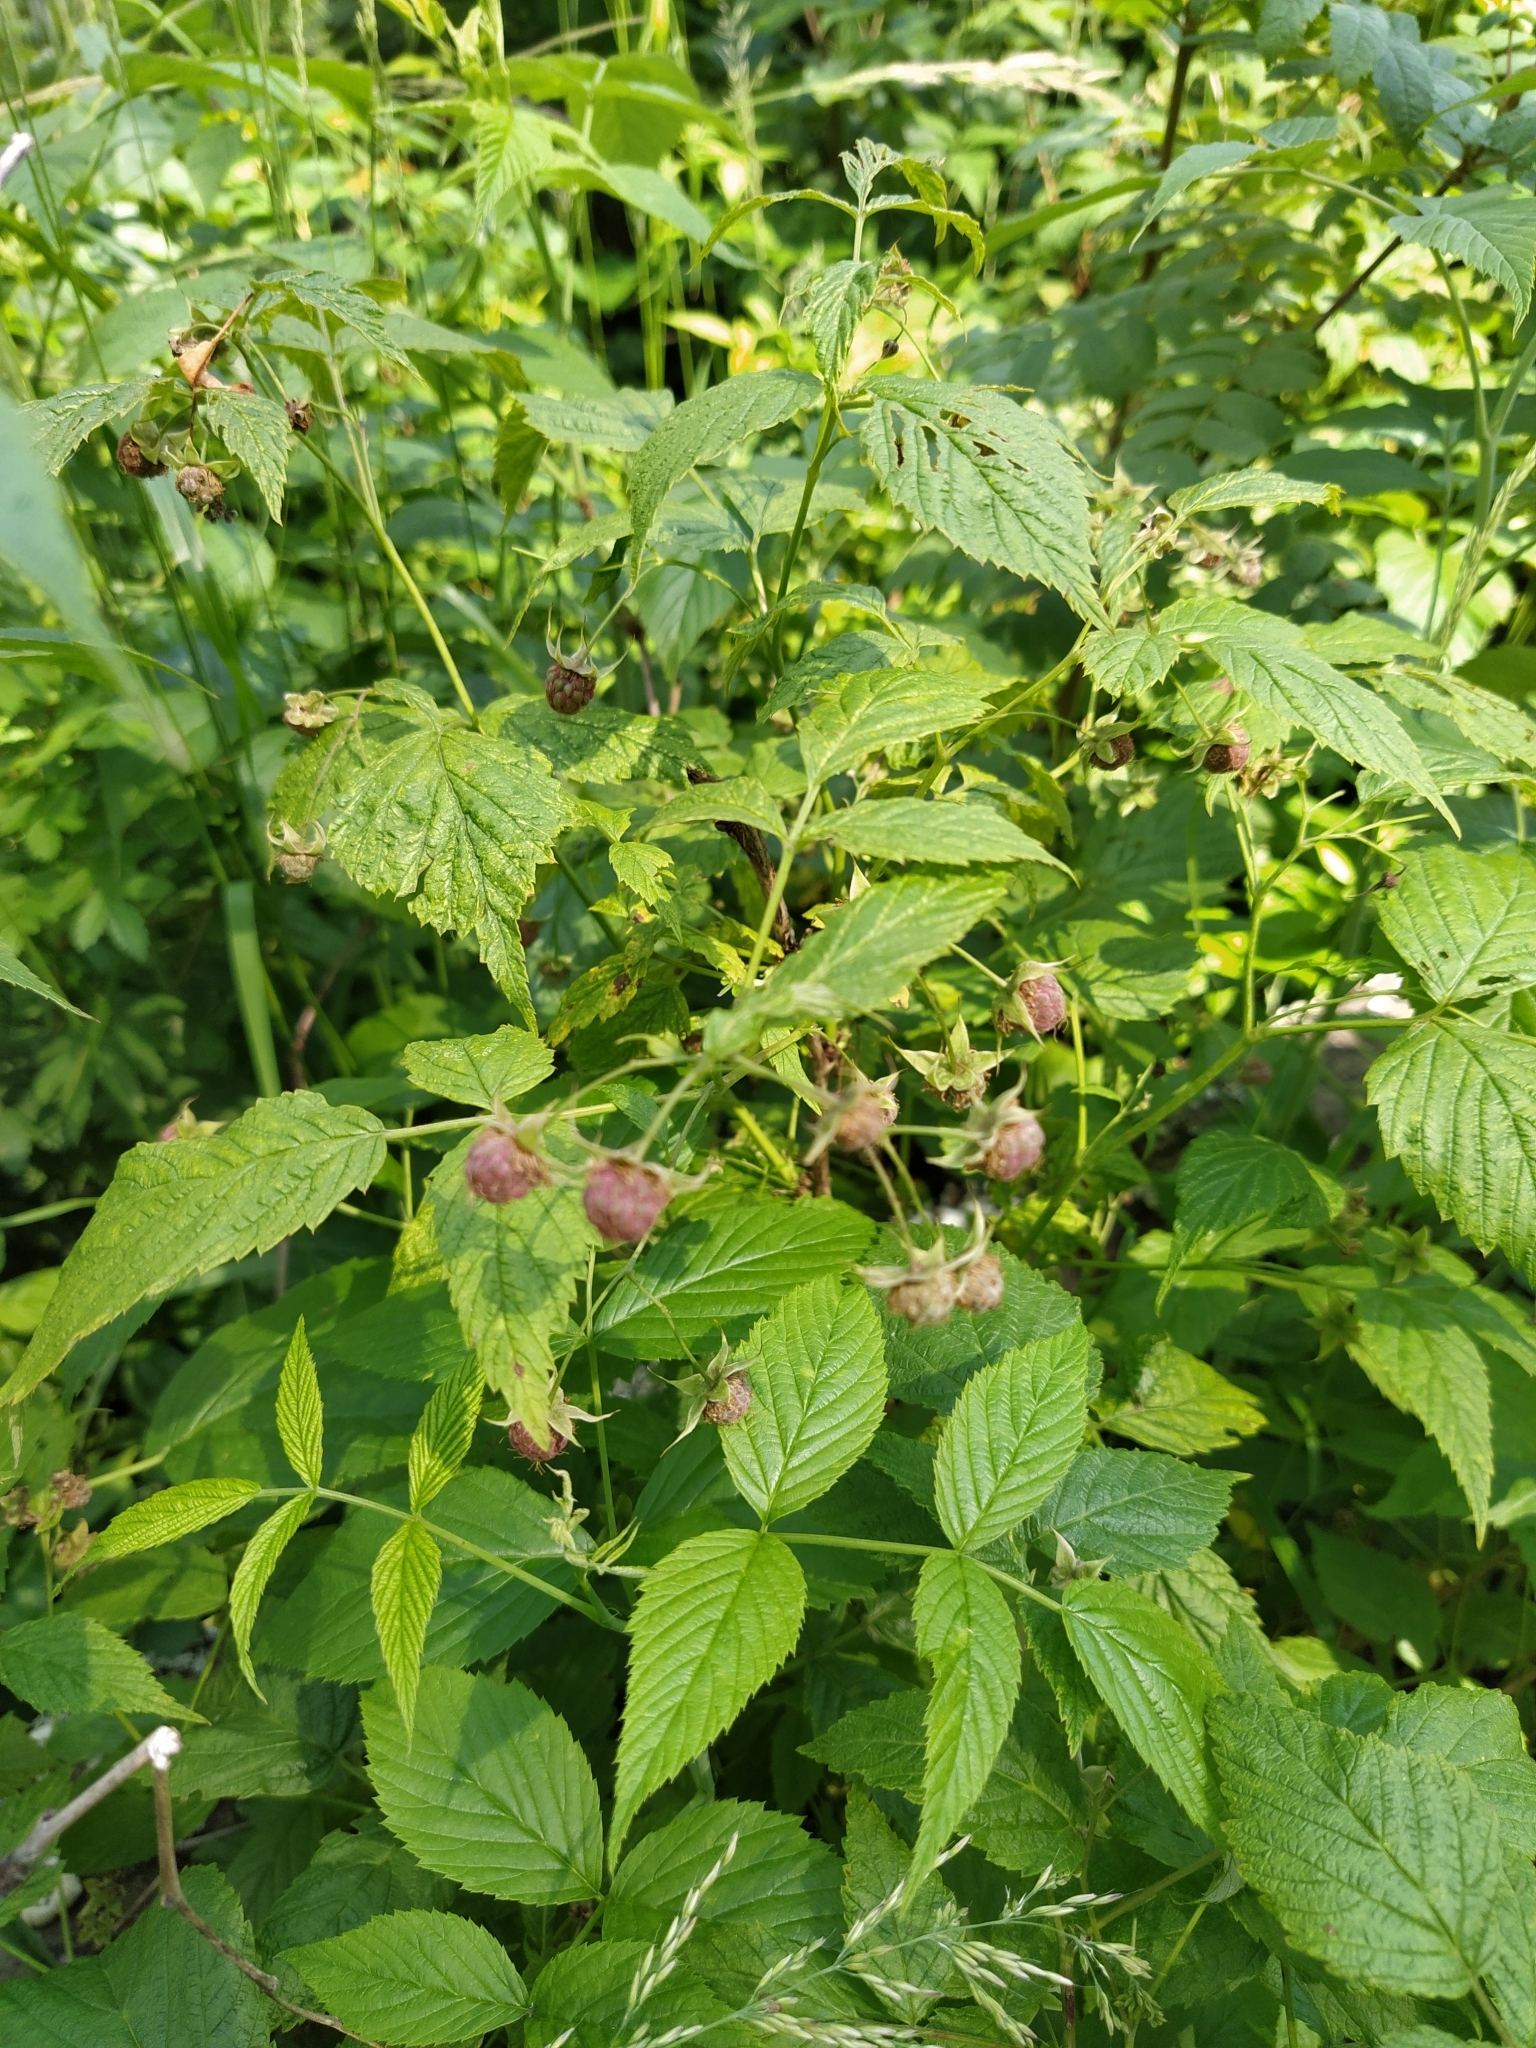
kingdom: Plantae
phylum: Tracheophyta
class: Magnoliopsida
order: Rosales
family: Rosaceae
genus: Rubus
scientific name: Rubus idaeus
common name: Raspberry
